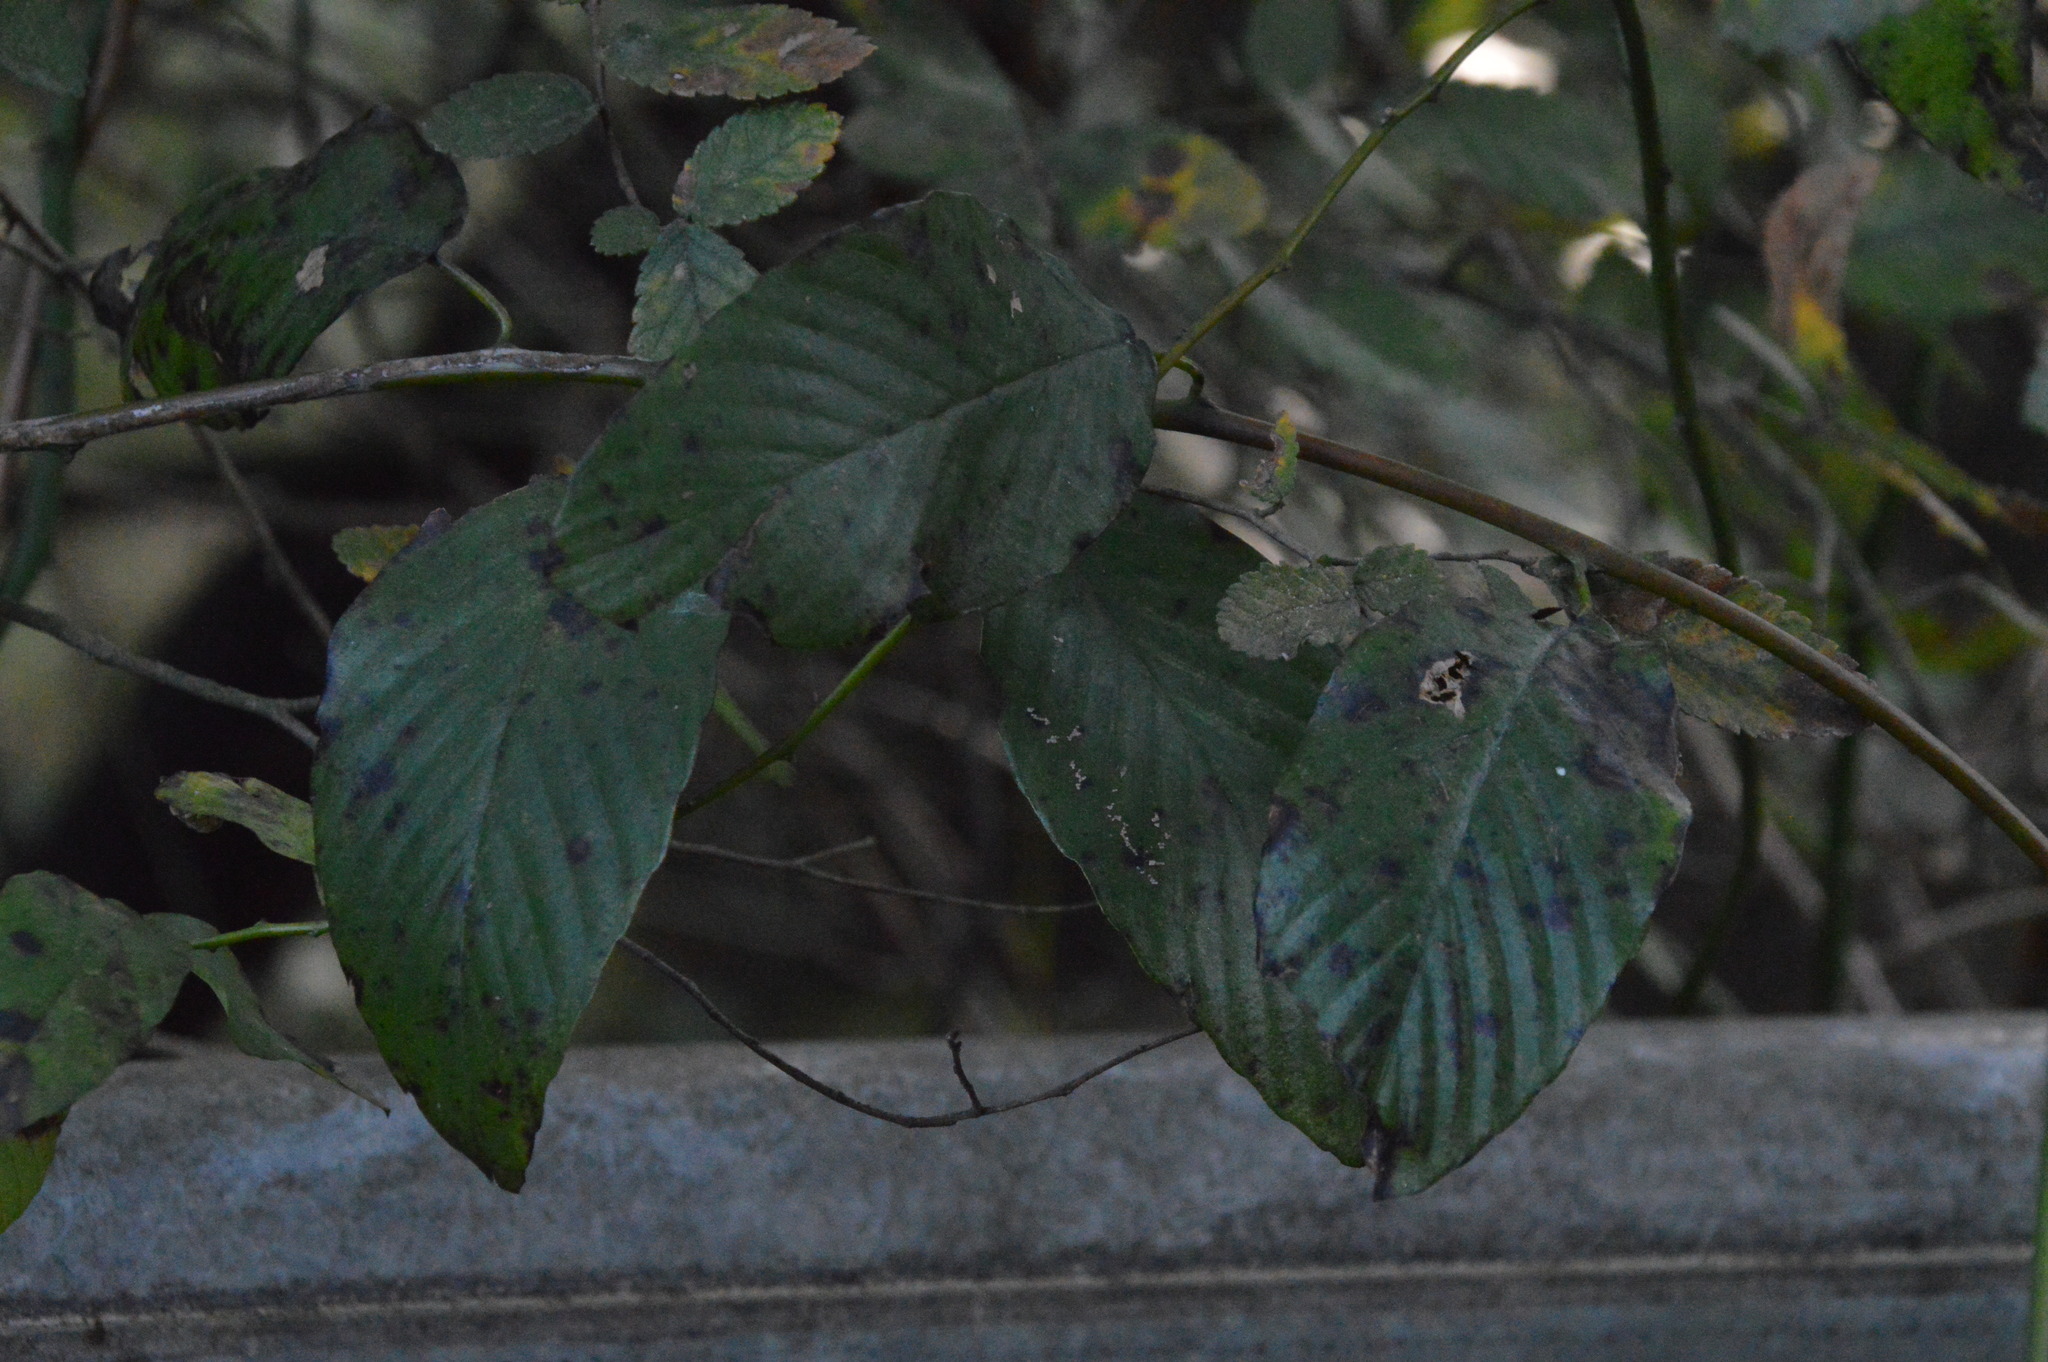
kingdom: Plantae
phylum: Tracheophyta
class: Magnoliopsida
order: Rosales
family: Rhamnaceae
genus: Berchemia
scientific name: Berchemia scandens
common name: Supplejack
